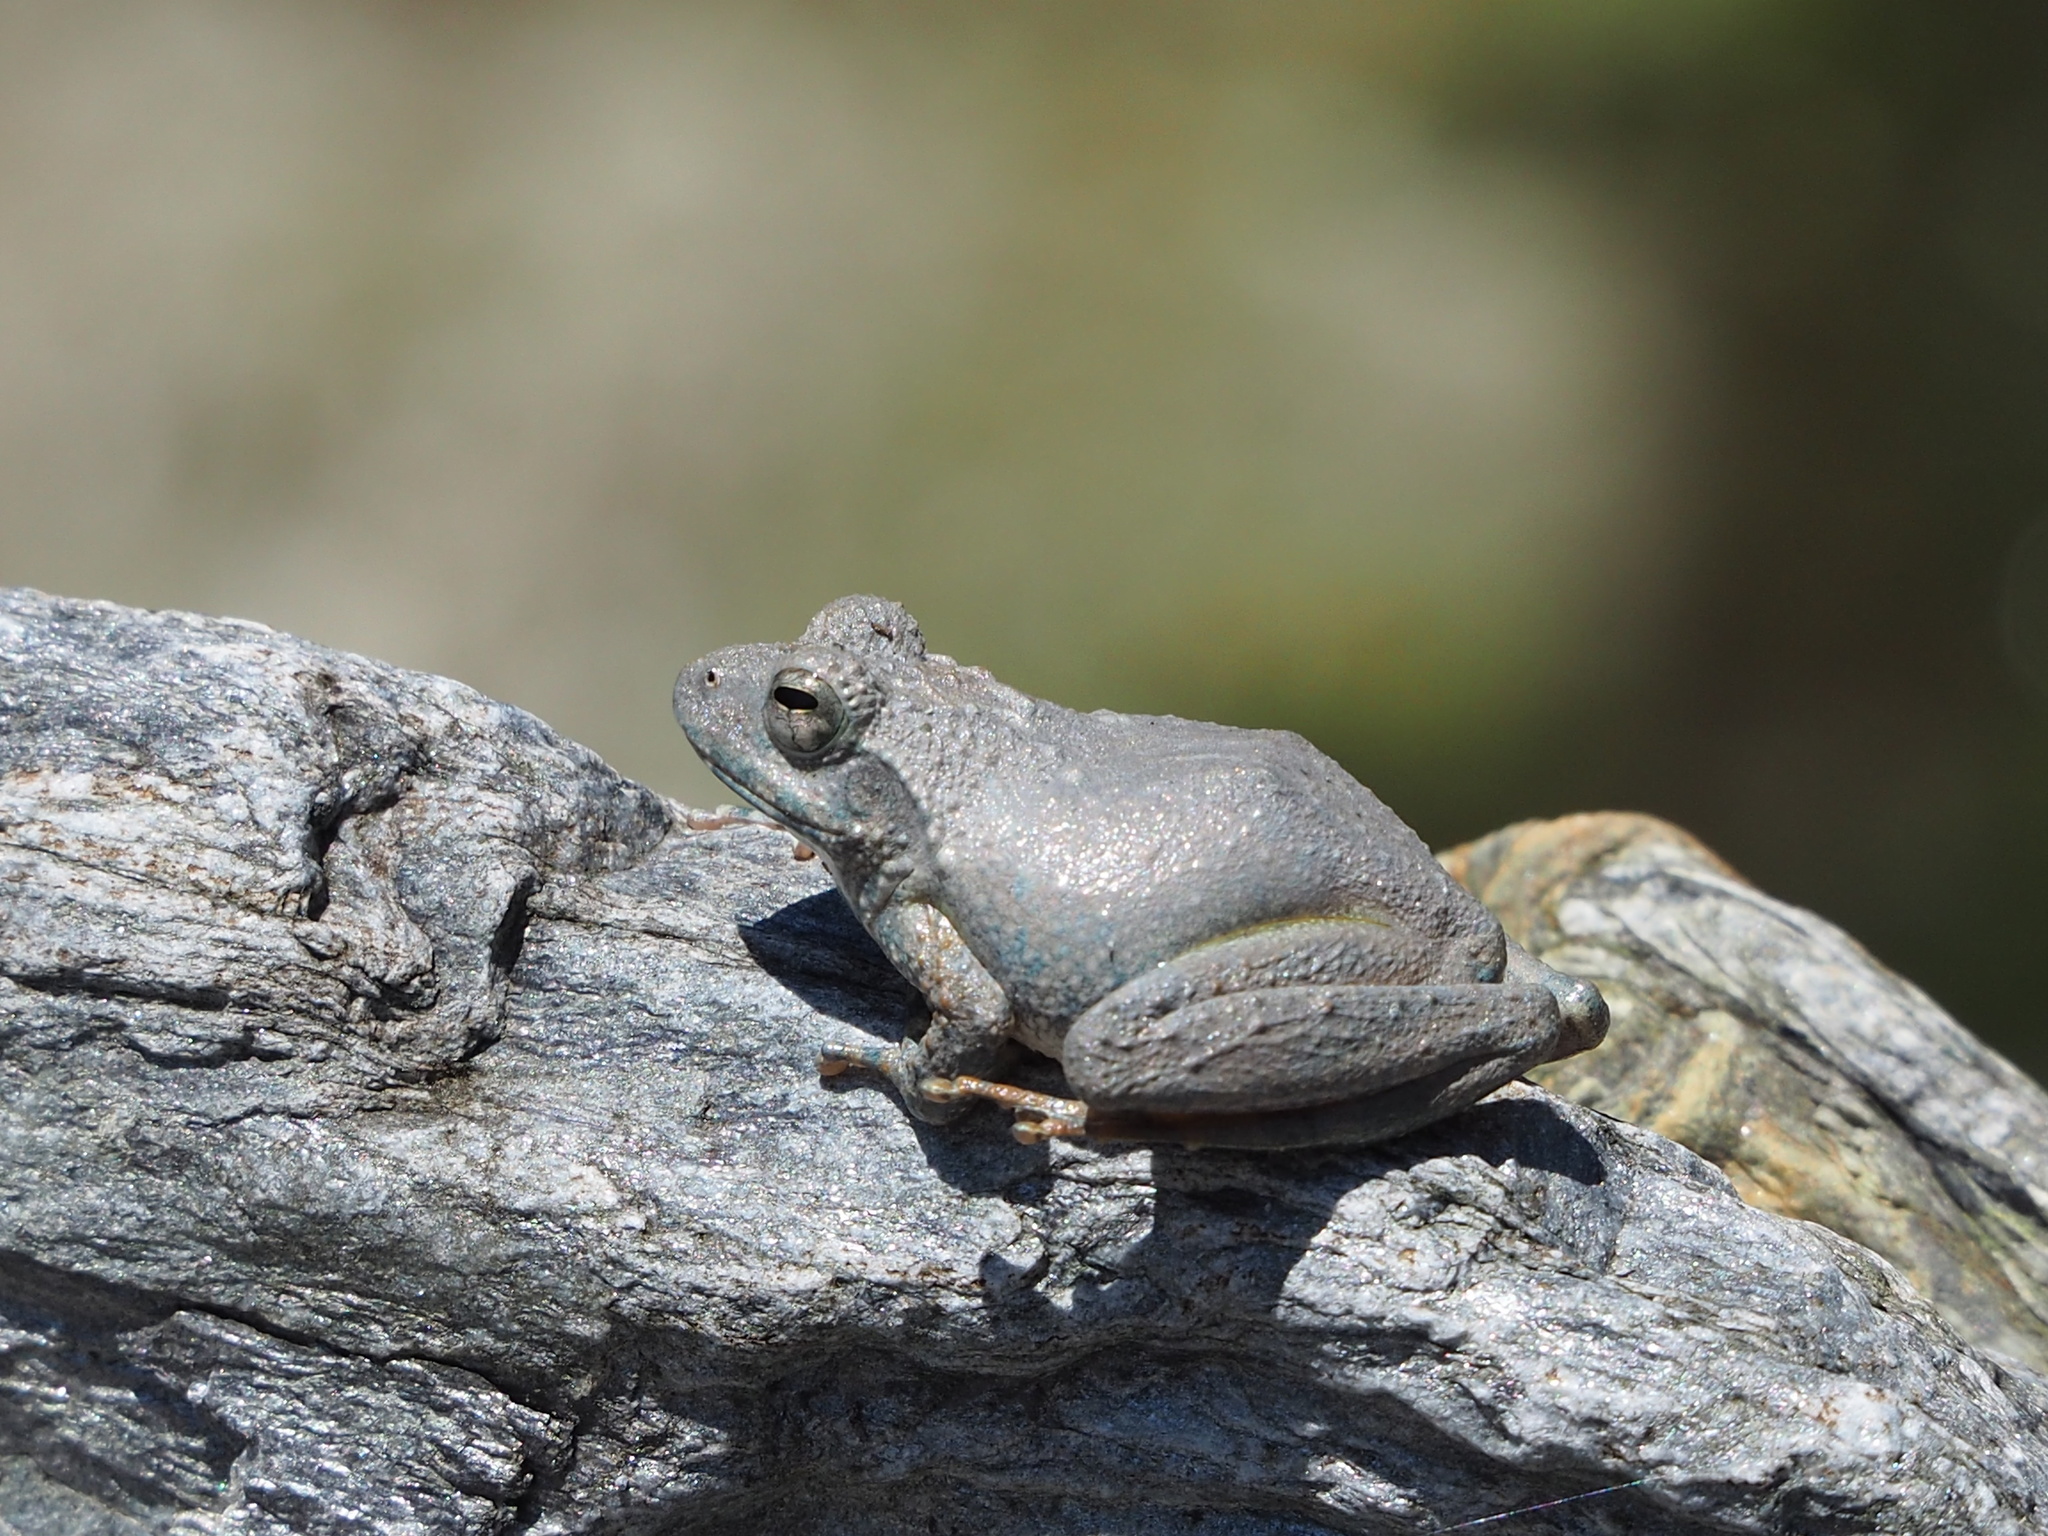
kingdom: Animalia
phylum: Chordata
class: Amphibia
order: Anura
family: Rhacophoridae
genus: Buergeria
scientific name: Buergeria otai
